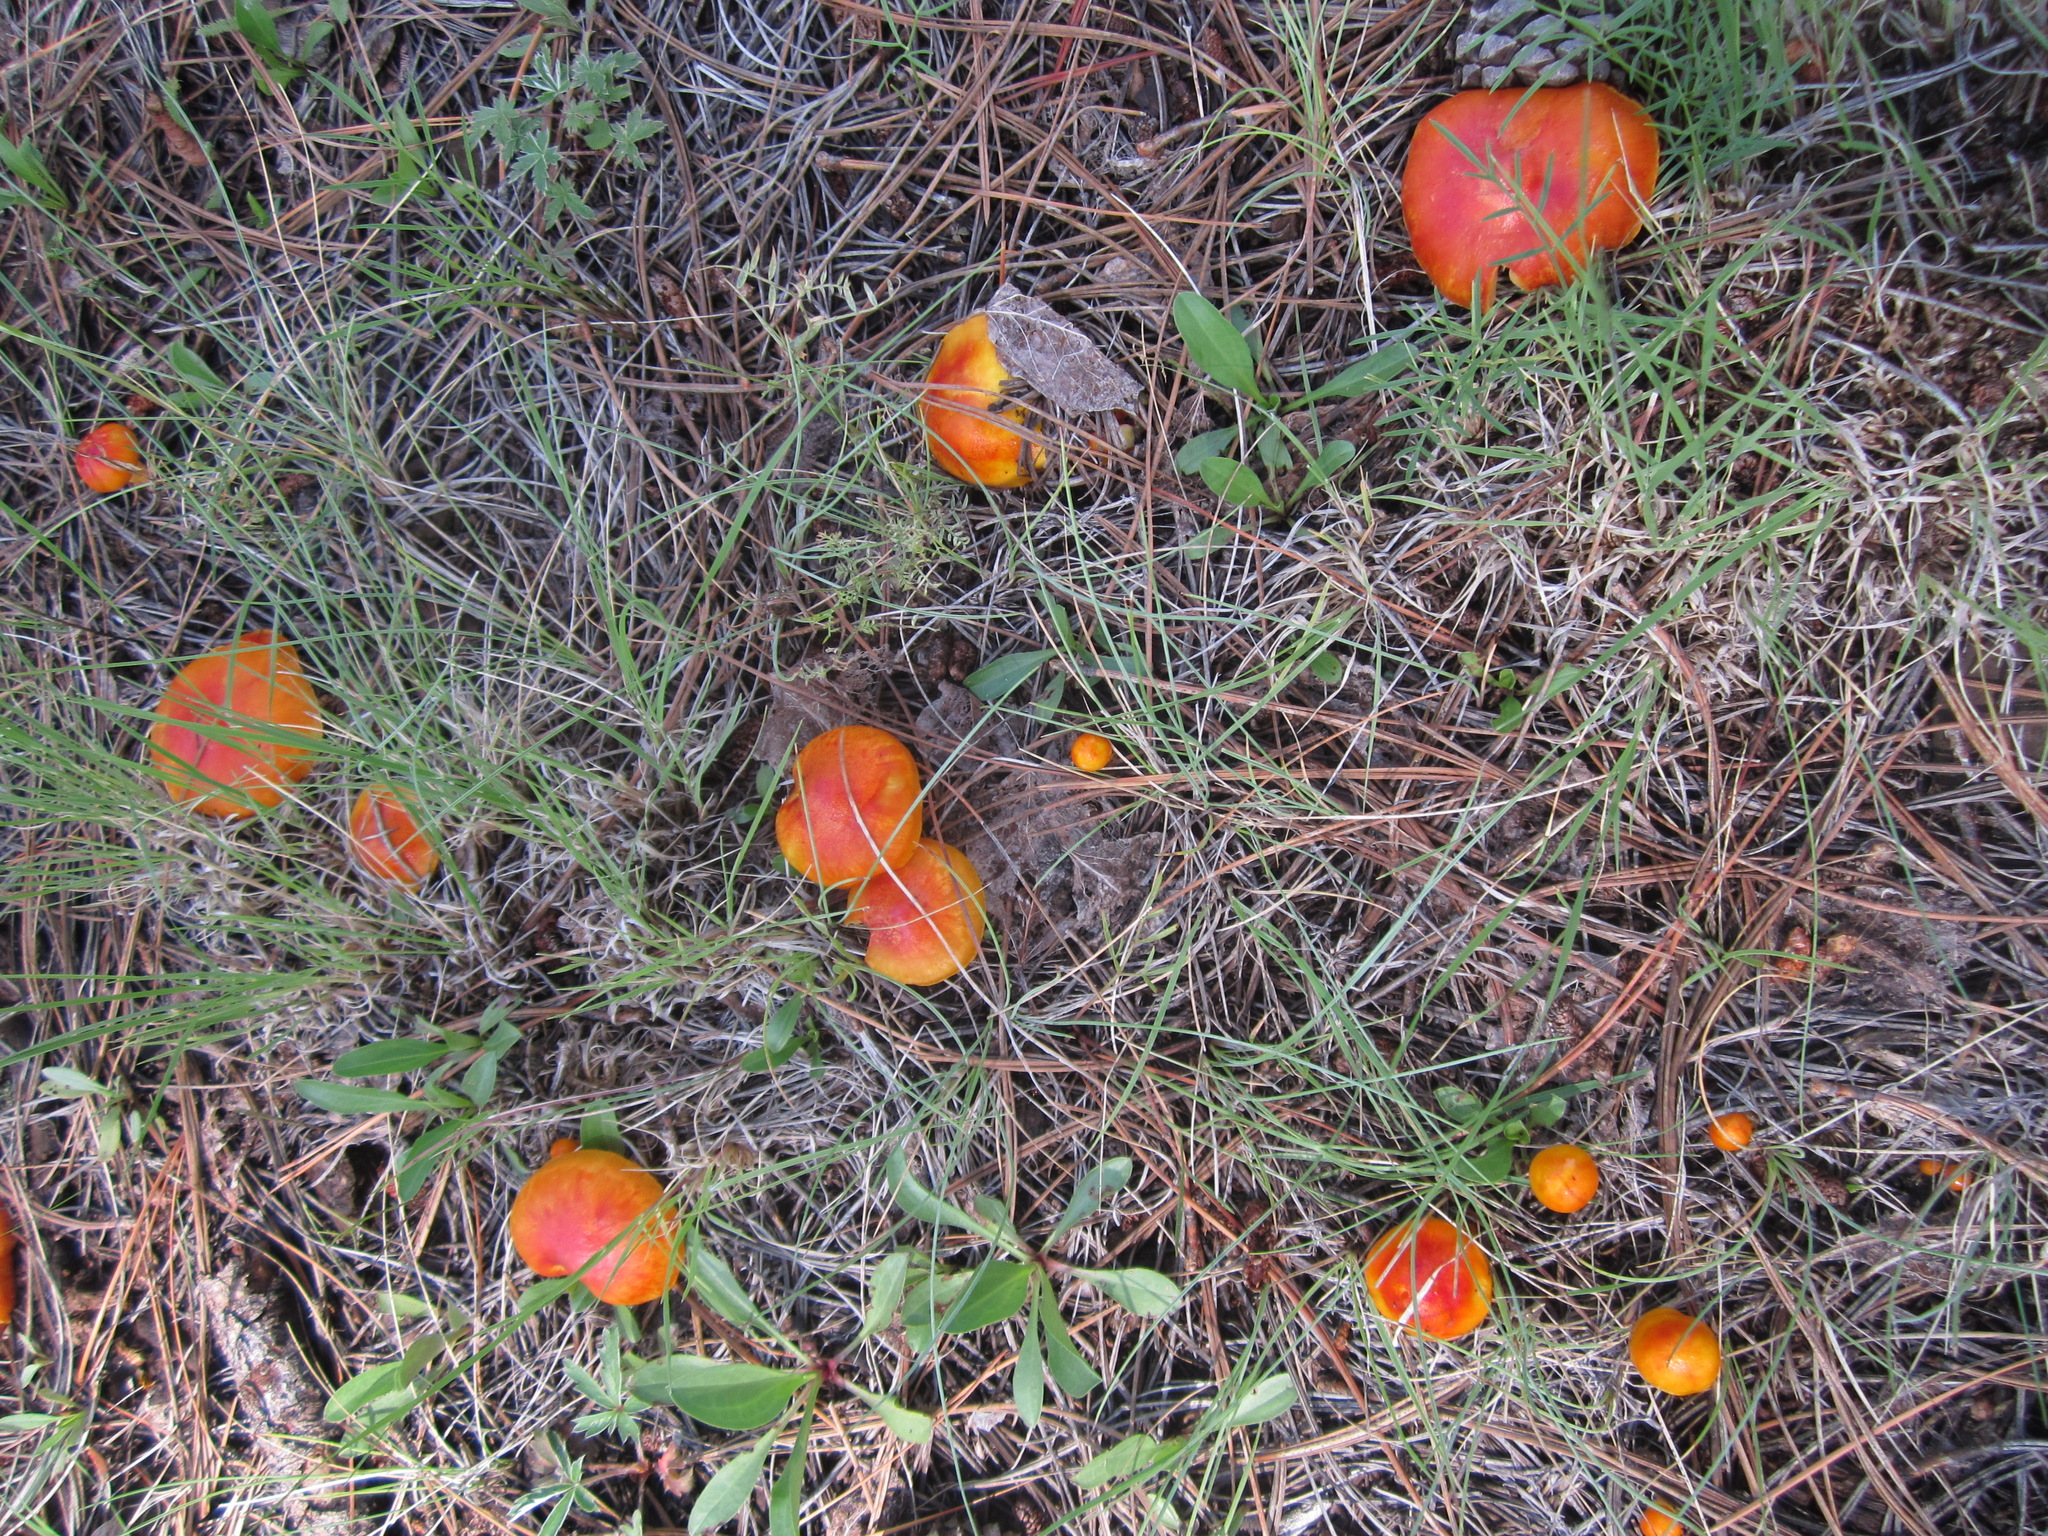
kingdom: Fungi
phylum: Basidiomycota
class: Agaricomycetes
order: Agaricales
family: Hygrophoraceae
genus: Hygrophorus
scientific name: Hygrophorus siccipes
